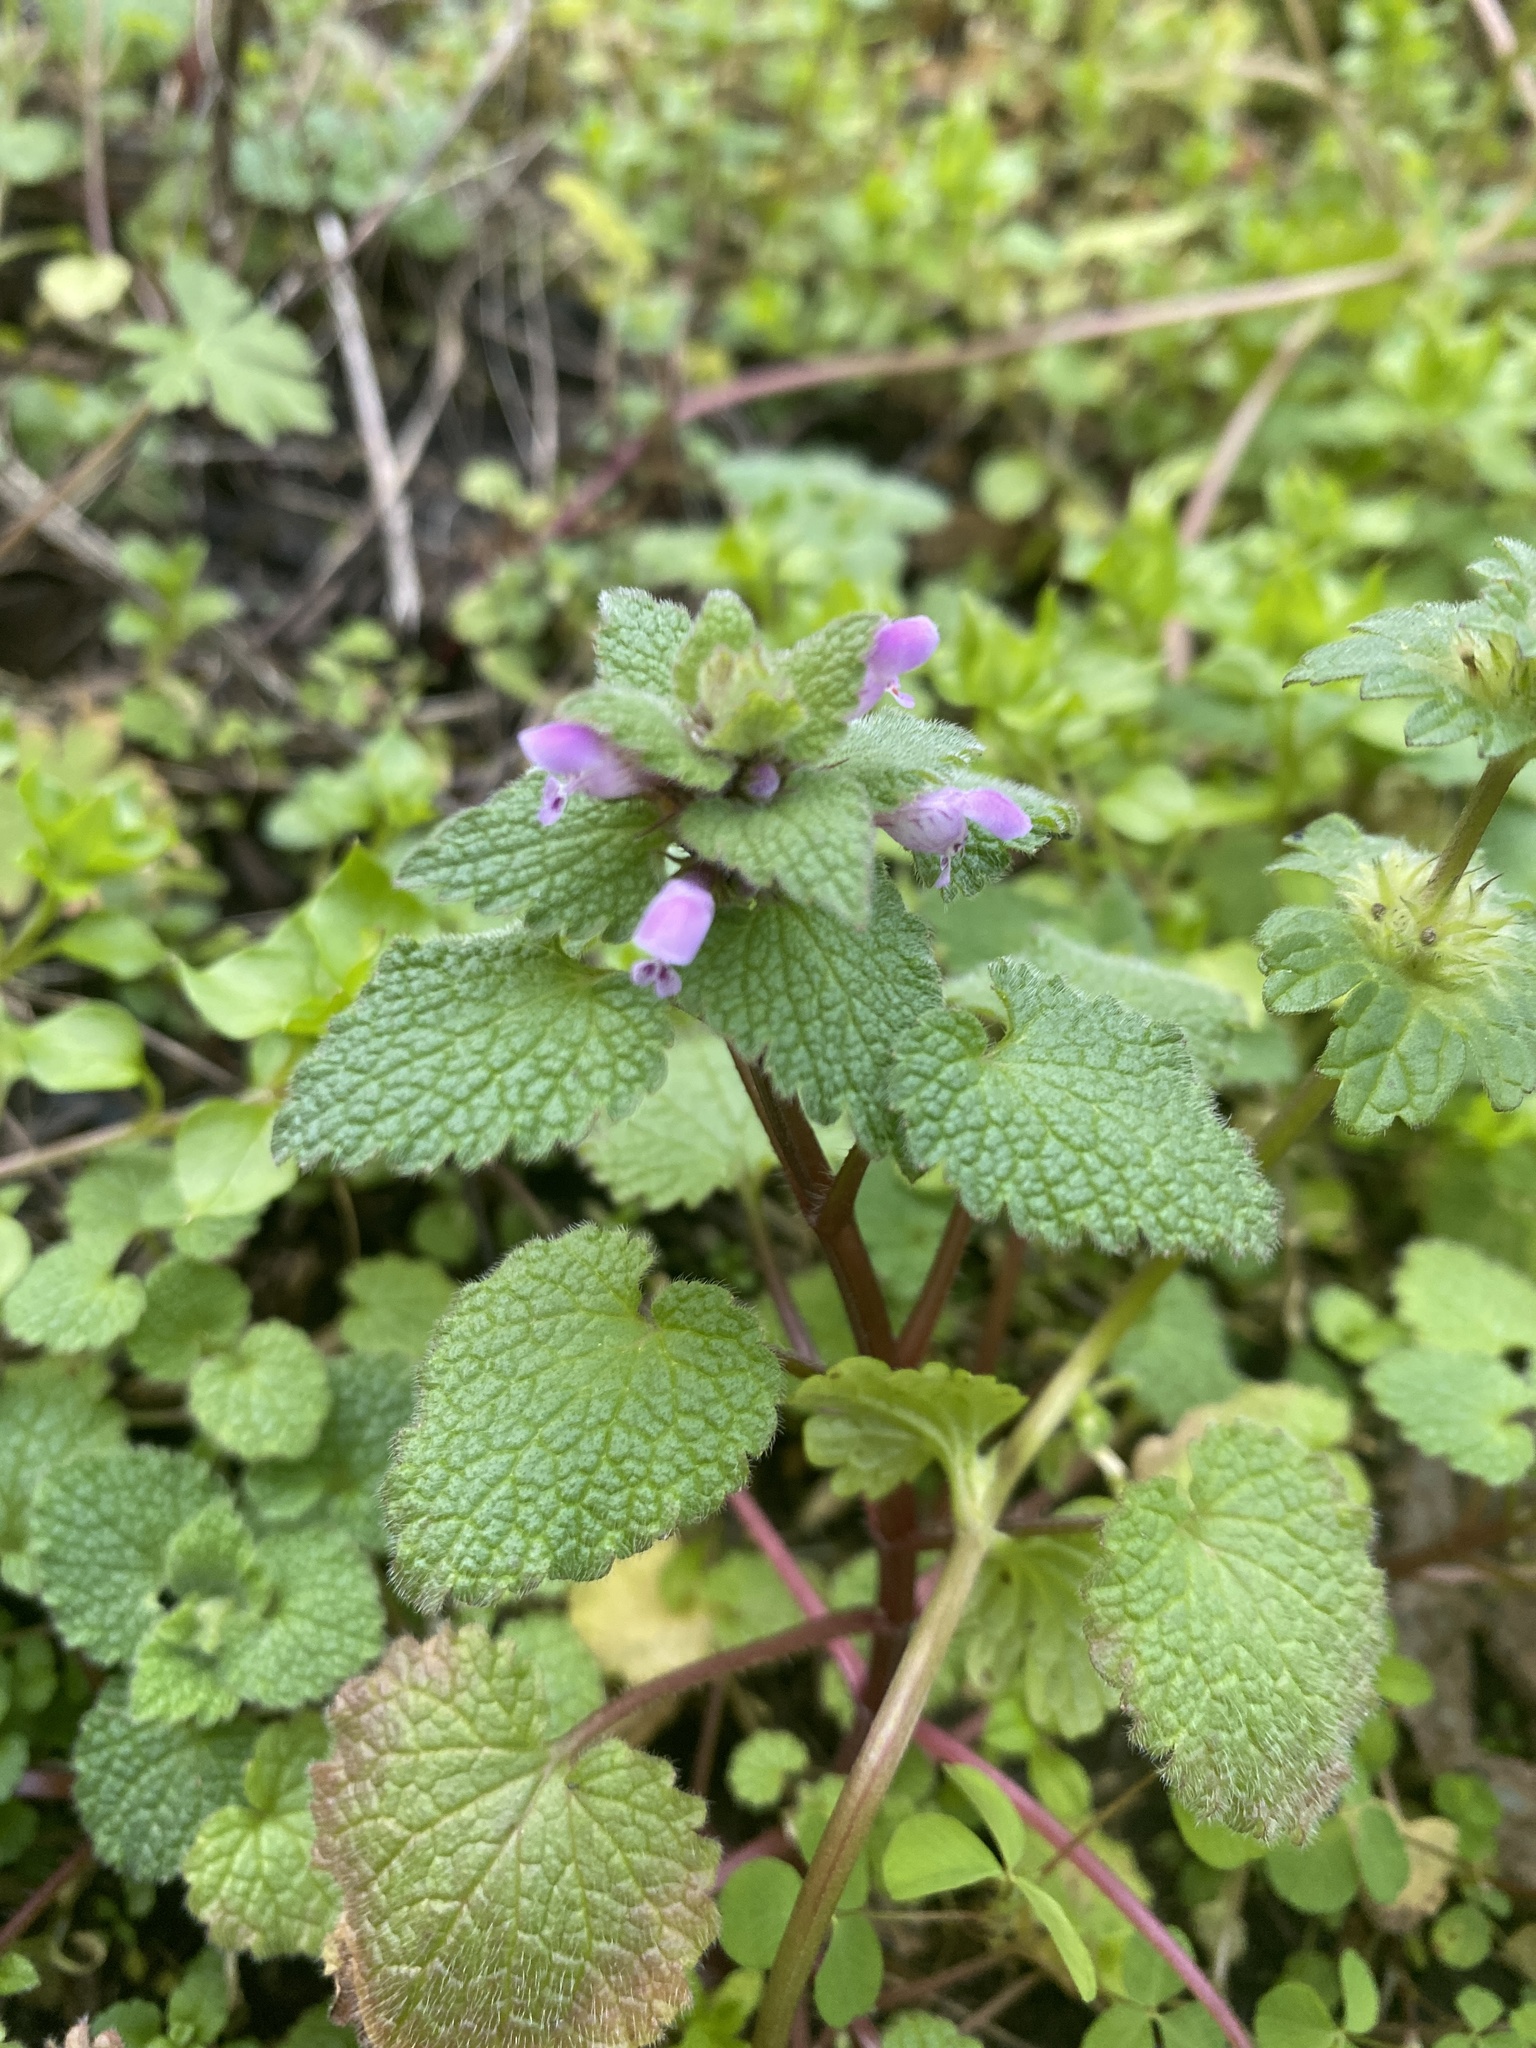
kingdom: Plantae
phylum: Tracheophyta
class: Magnoliopsida
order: Lamiales
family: Lamiaceae
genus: Lamium
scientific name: Lamium purpureum
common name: Red dead-nettle
